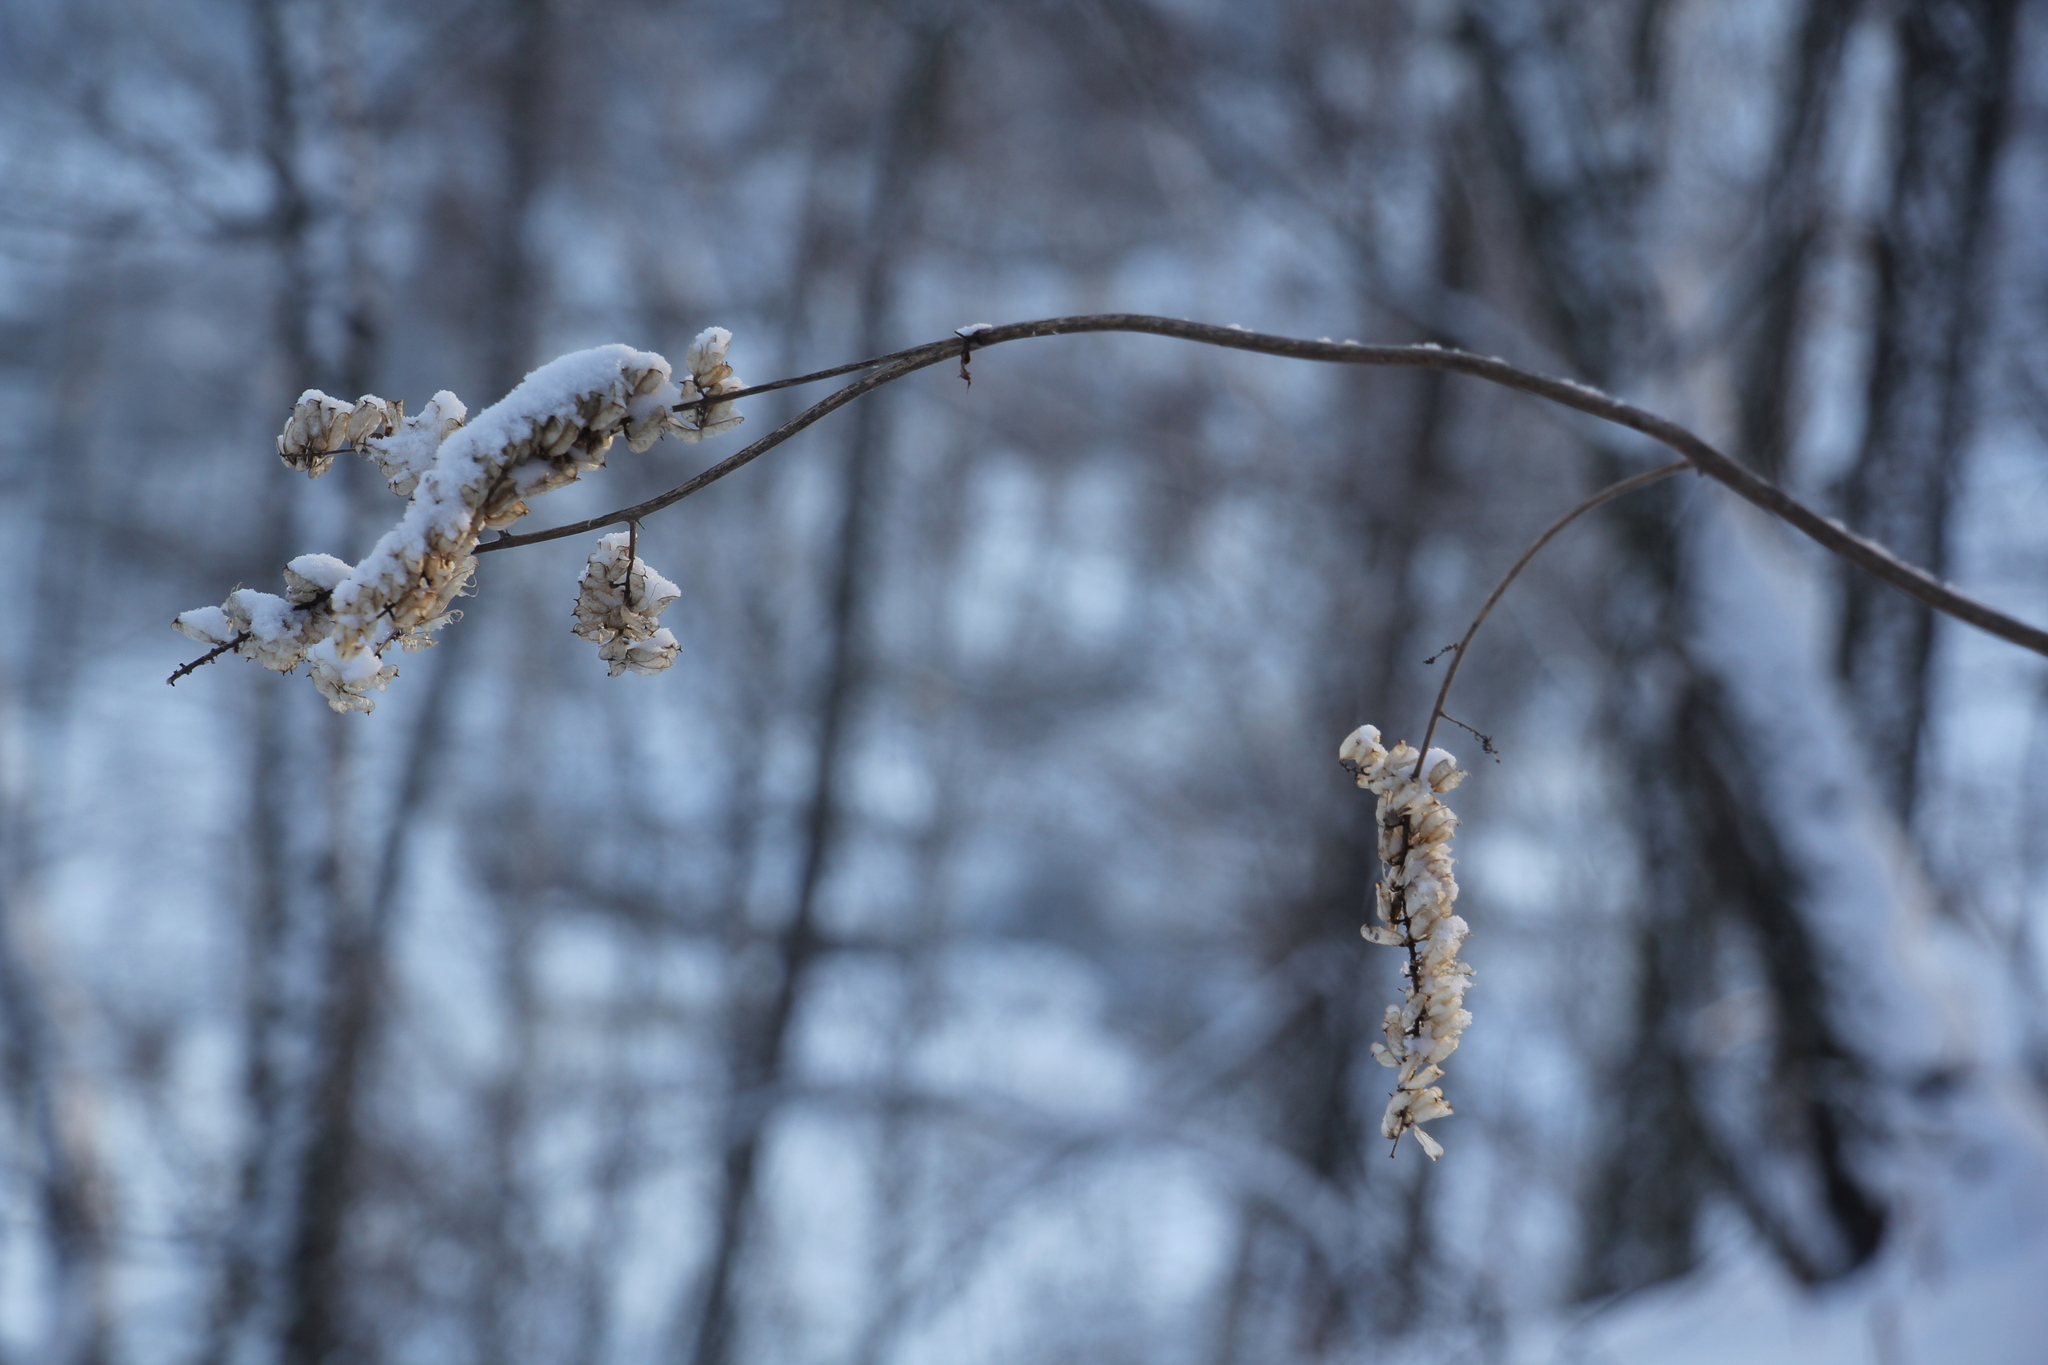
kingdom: Plantae
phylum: Tracheophyta
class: Magnoliopsida
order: Ranunculales
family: Ranunculaceae
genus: Actaea
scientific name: Actaea cimicifuga
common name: Chinese cimicifuga
